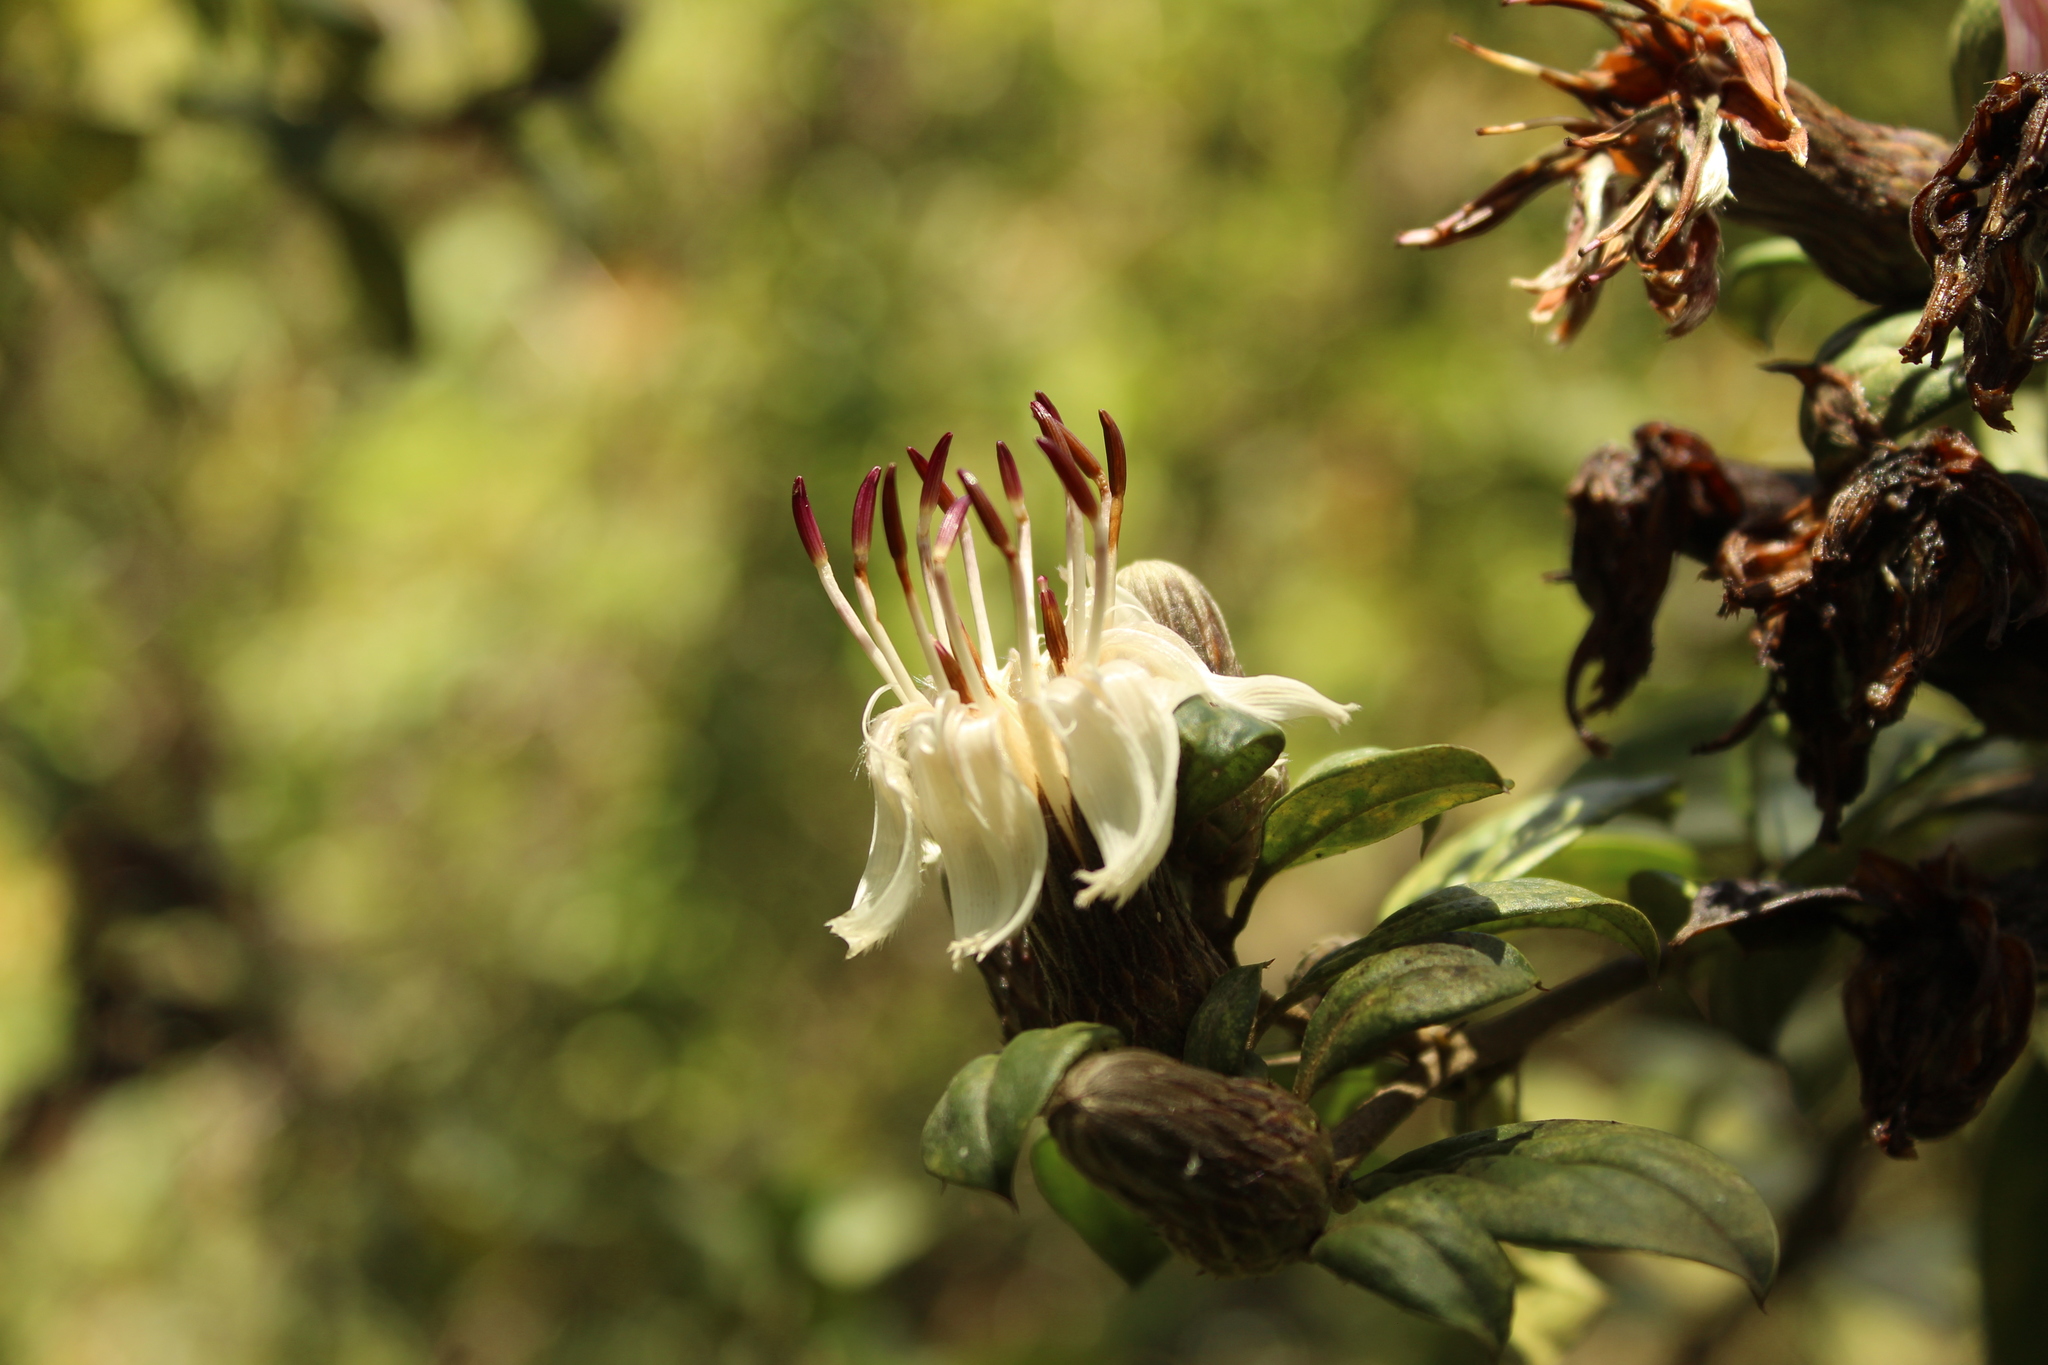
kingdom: Plantae
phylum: Tracheophyta
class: Magnoliopsida
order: Asterales
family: Asteraceae
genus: Barnadesia
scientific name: Barnadesia spinosa
